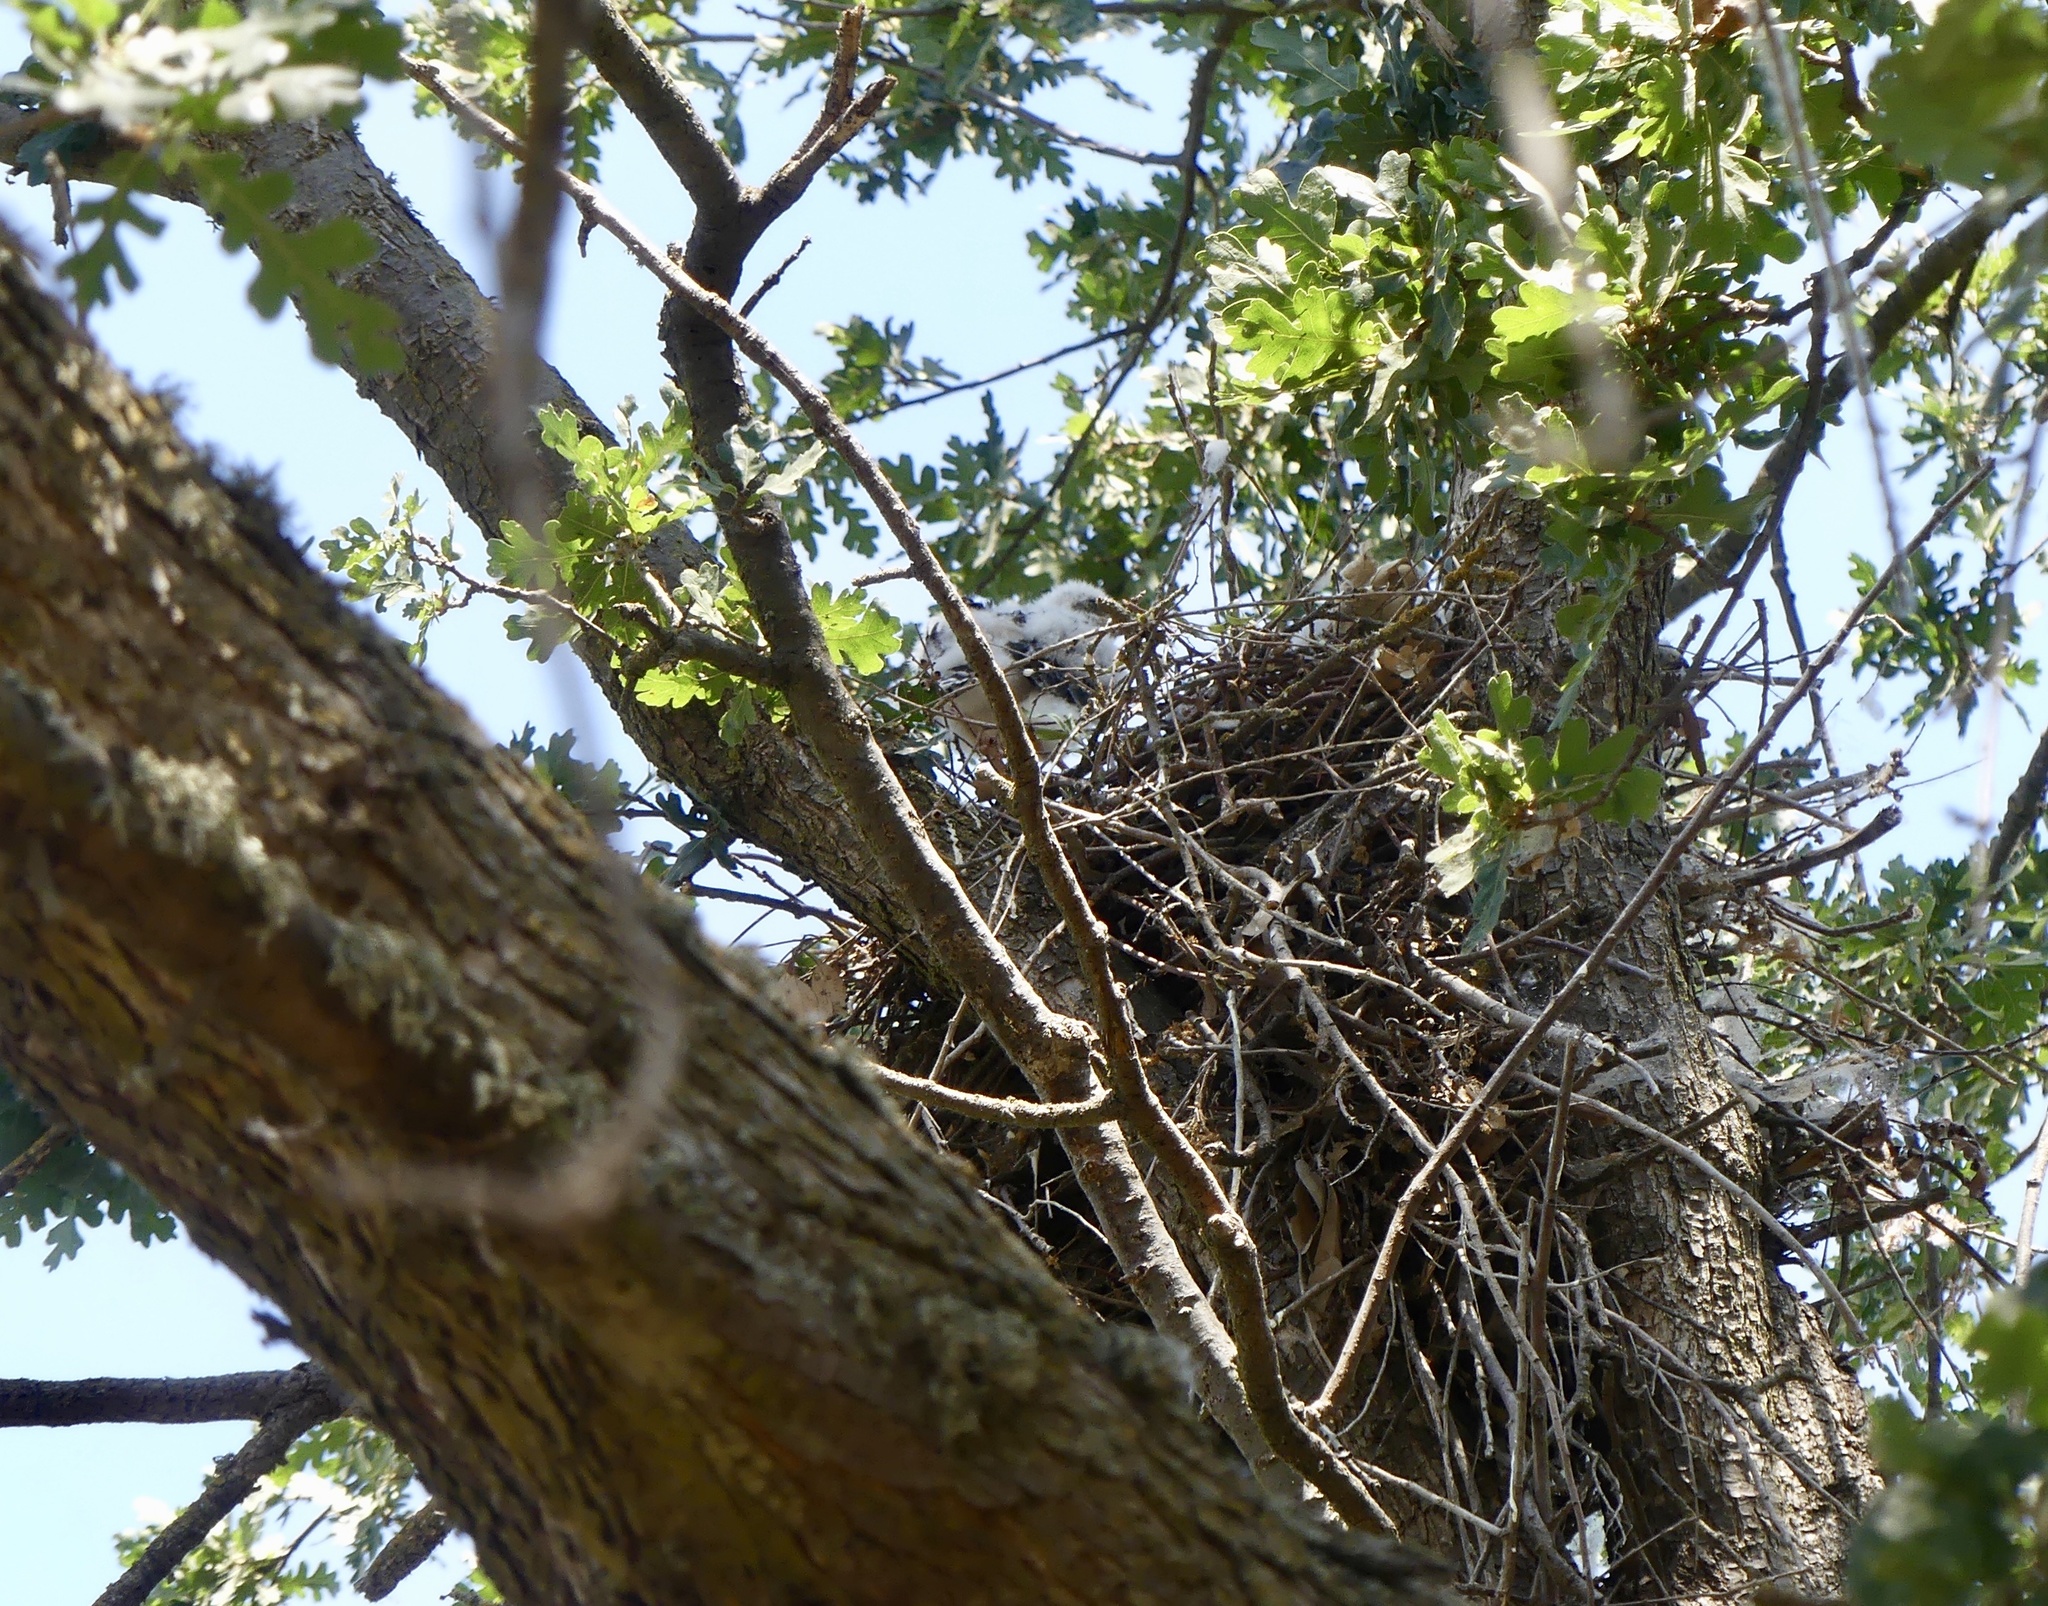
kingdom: Animalia
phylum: Chordata
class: Aves
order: Accipitriformes
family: Accipitridae
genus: Accipiter
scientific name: Accipiter cooperii
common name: Cooper's hawk
